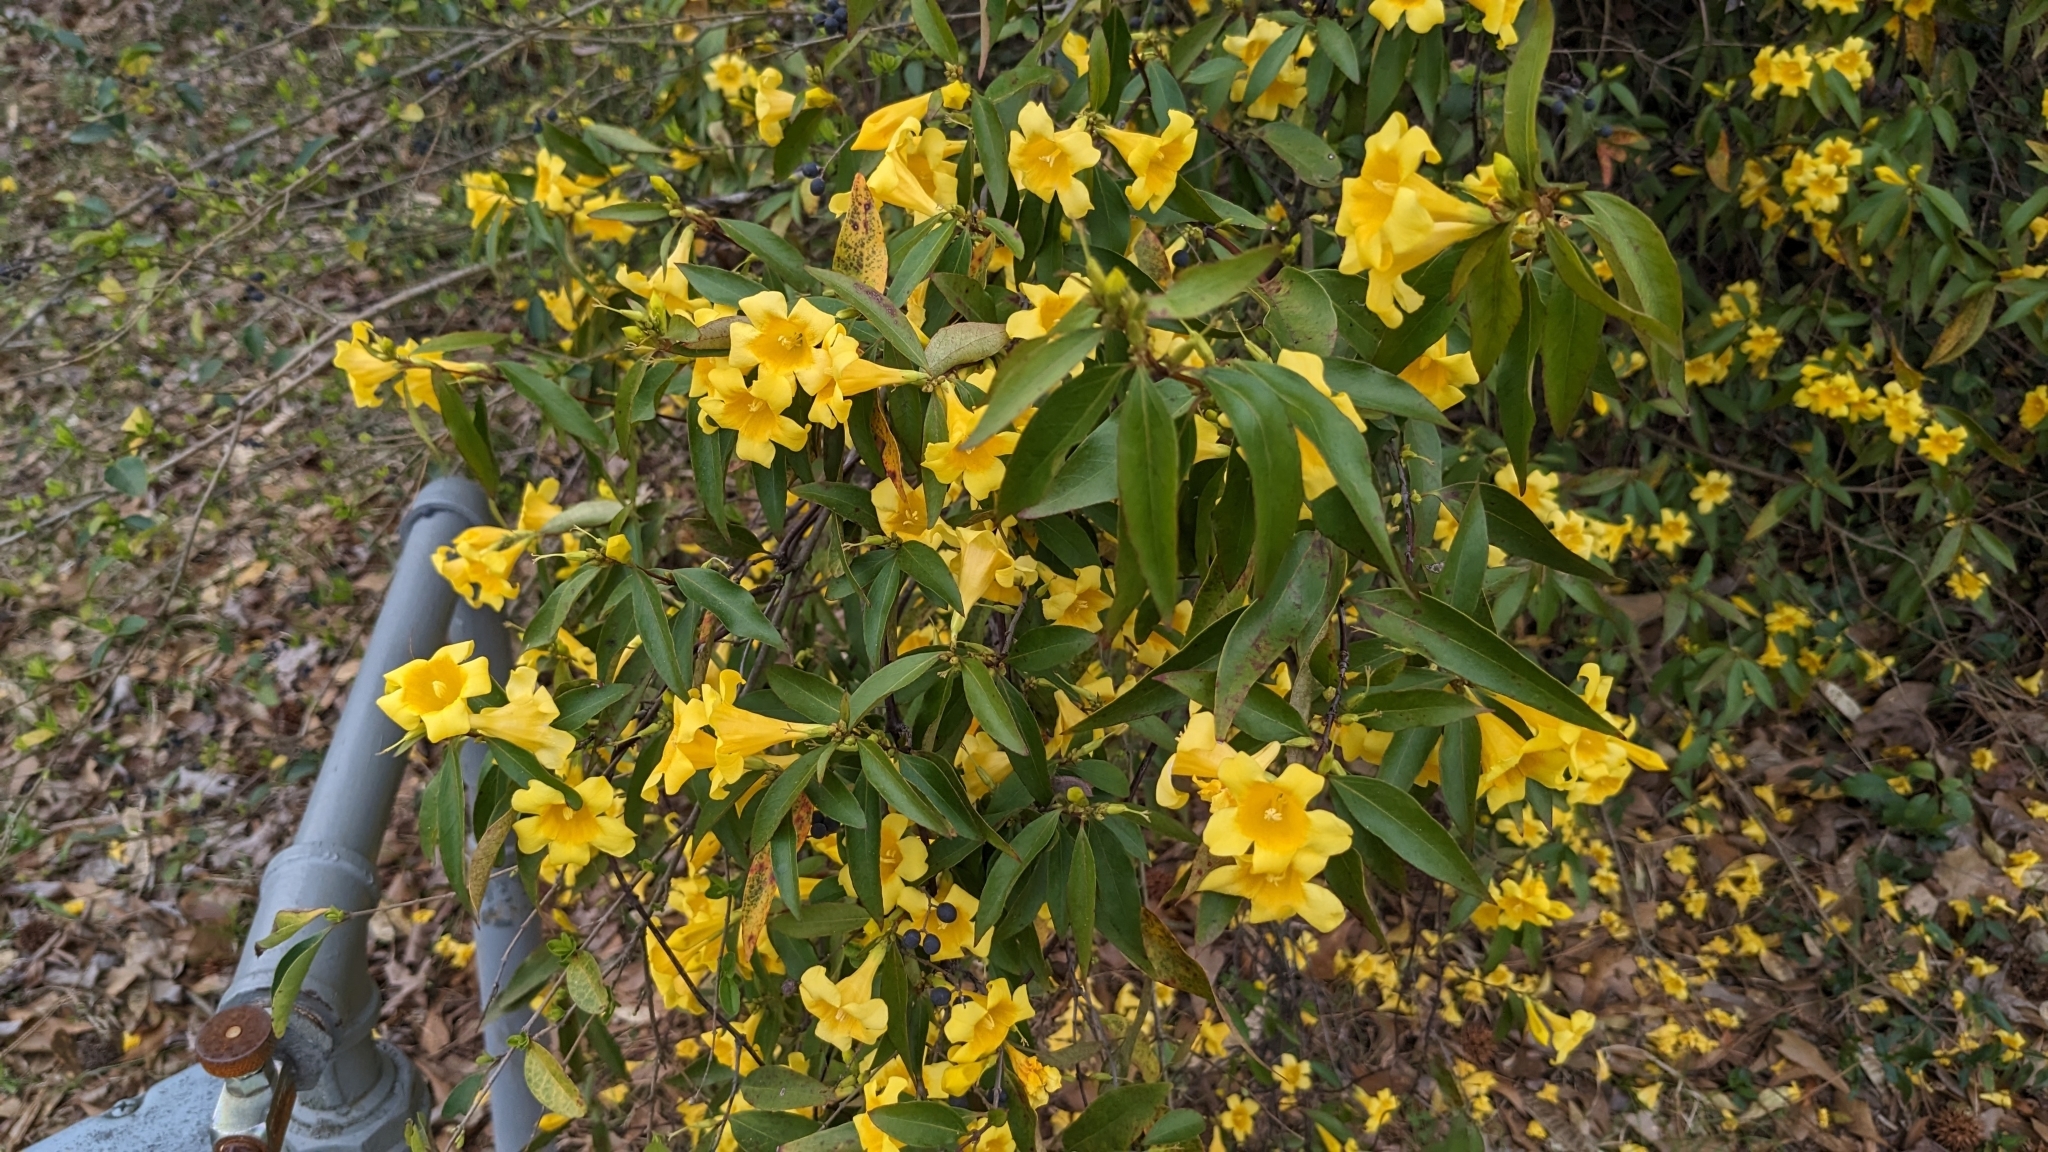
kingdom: Plantae
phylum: Tracheophyta
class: Magnoliopsida
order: Gentianales
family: Gelsemiaceae
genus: Gelsemium
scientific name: Gelsemium sempervirens
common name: Carolina-jasmine
